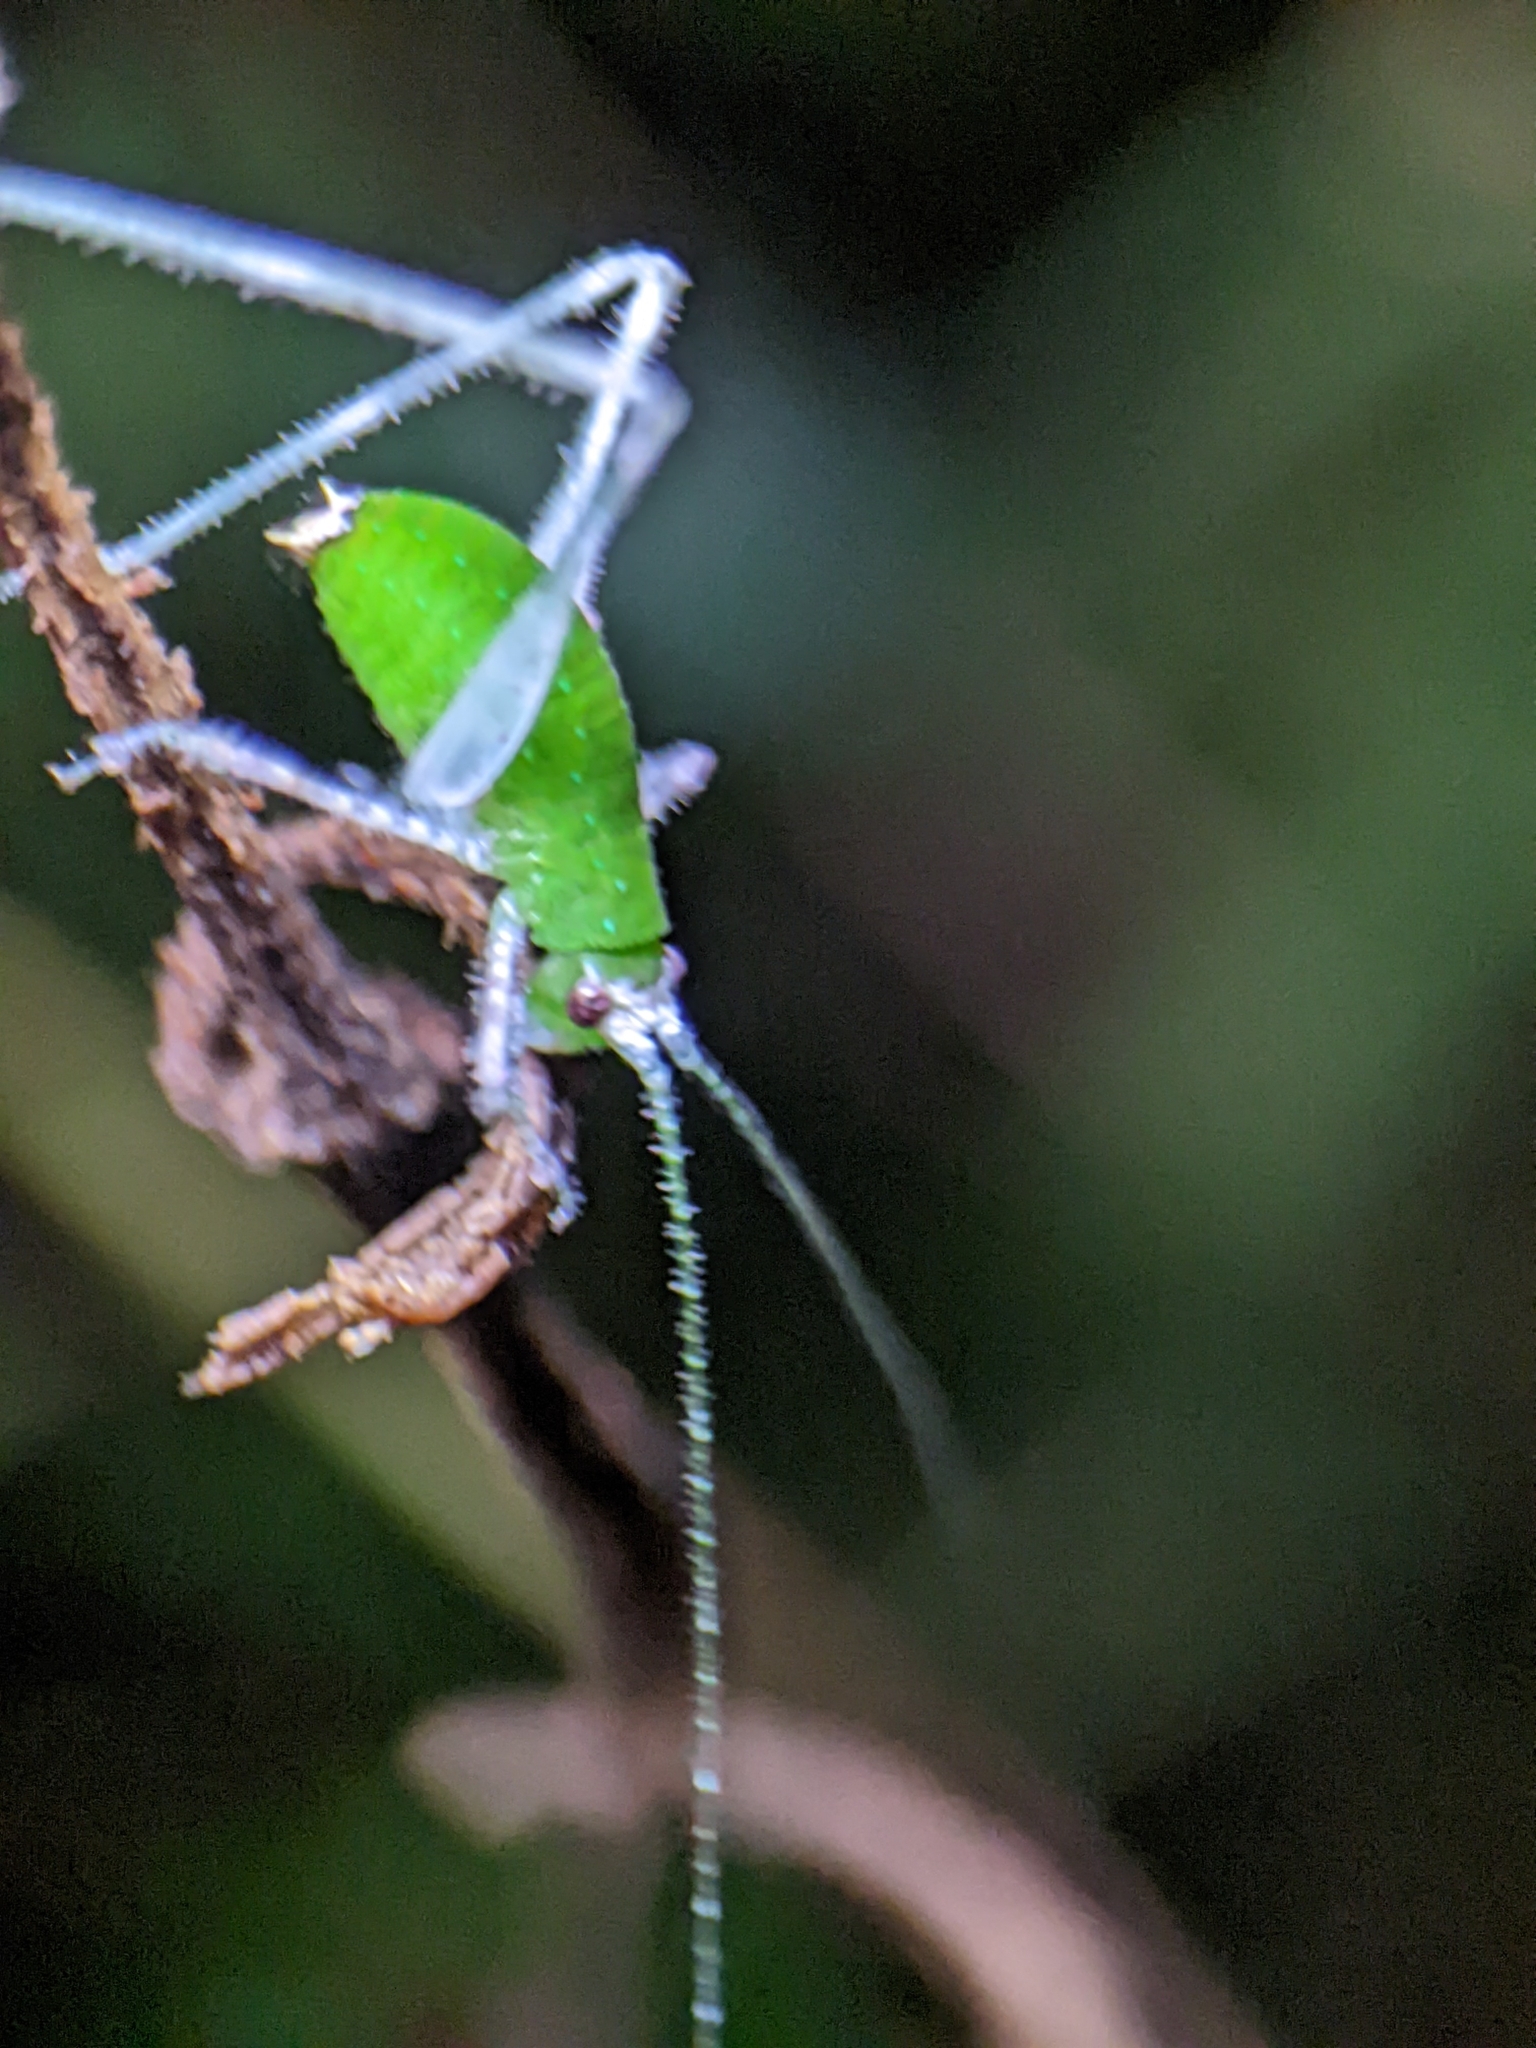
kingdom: Animalia
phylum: Arthropoda
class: Insecta
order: Orthoptera
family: Tettigoniidae
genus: Arnobia
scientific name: Arnobia pilipes
